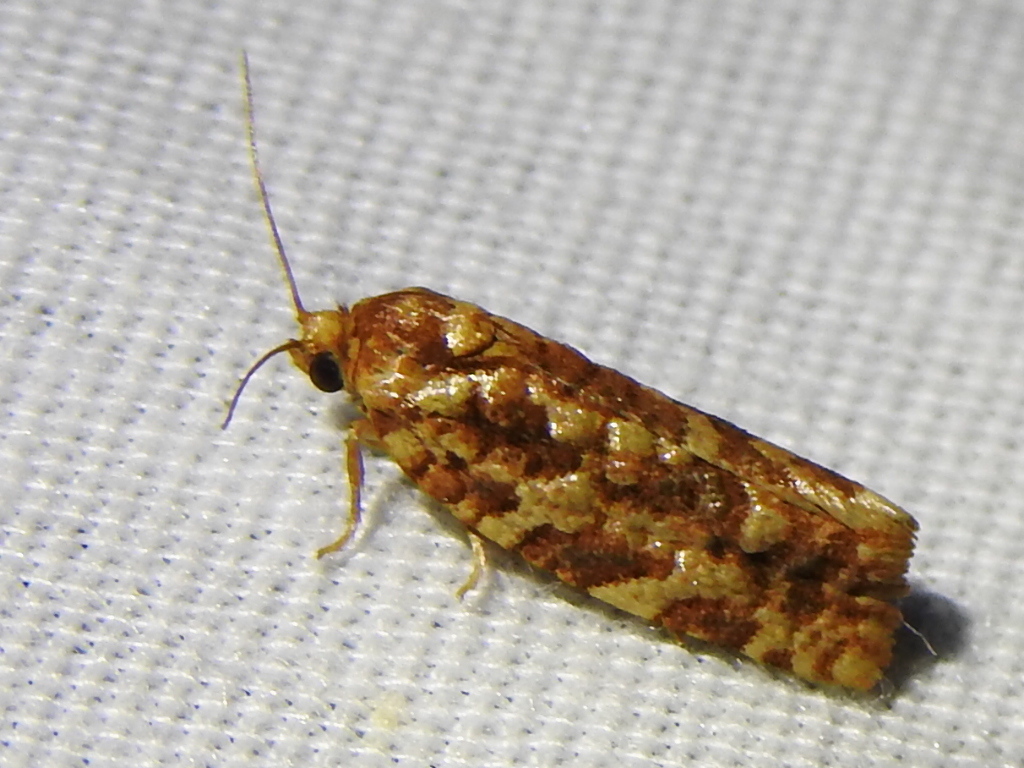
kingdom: Animalia
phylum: Arthropoda
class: Insecta
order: Lepidoptera
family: Tortricidae
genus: Choristoneura
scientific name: Choristoneura houstonana
